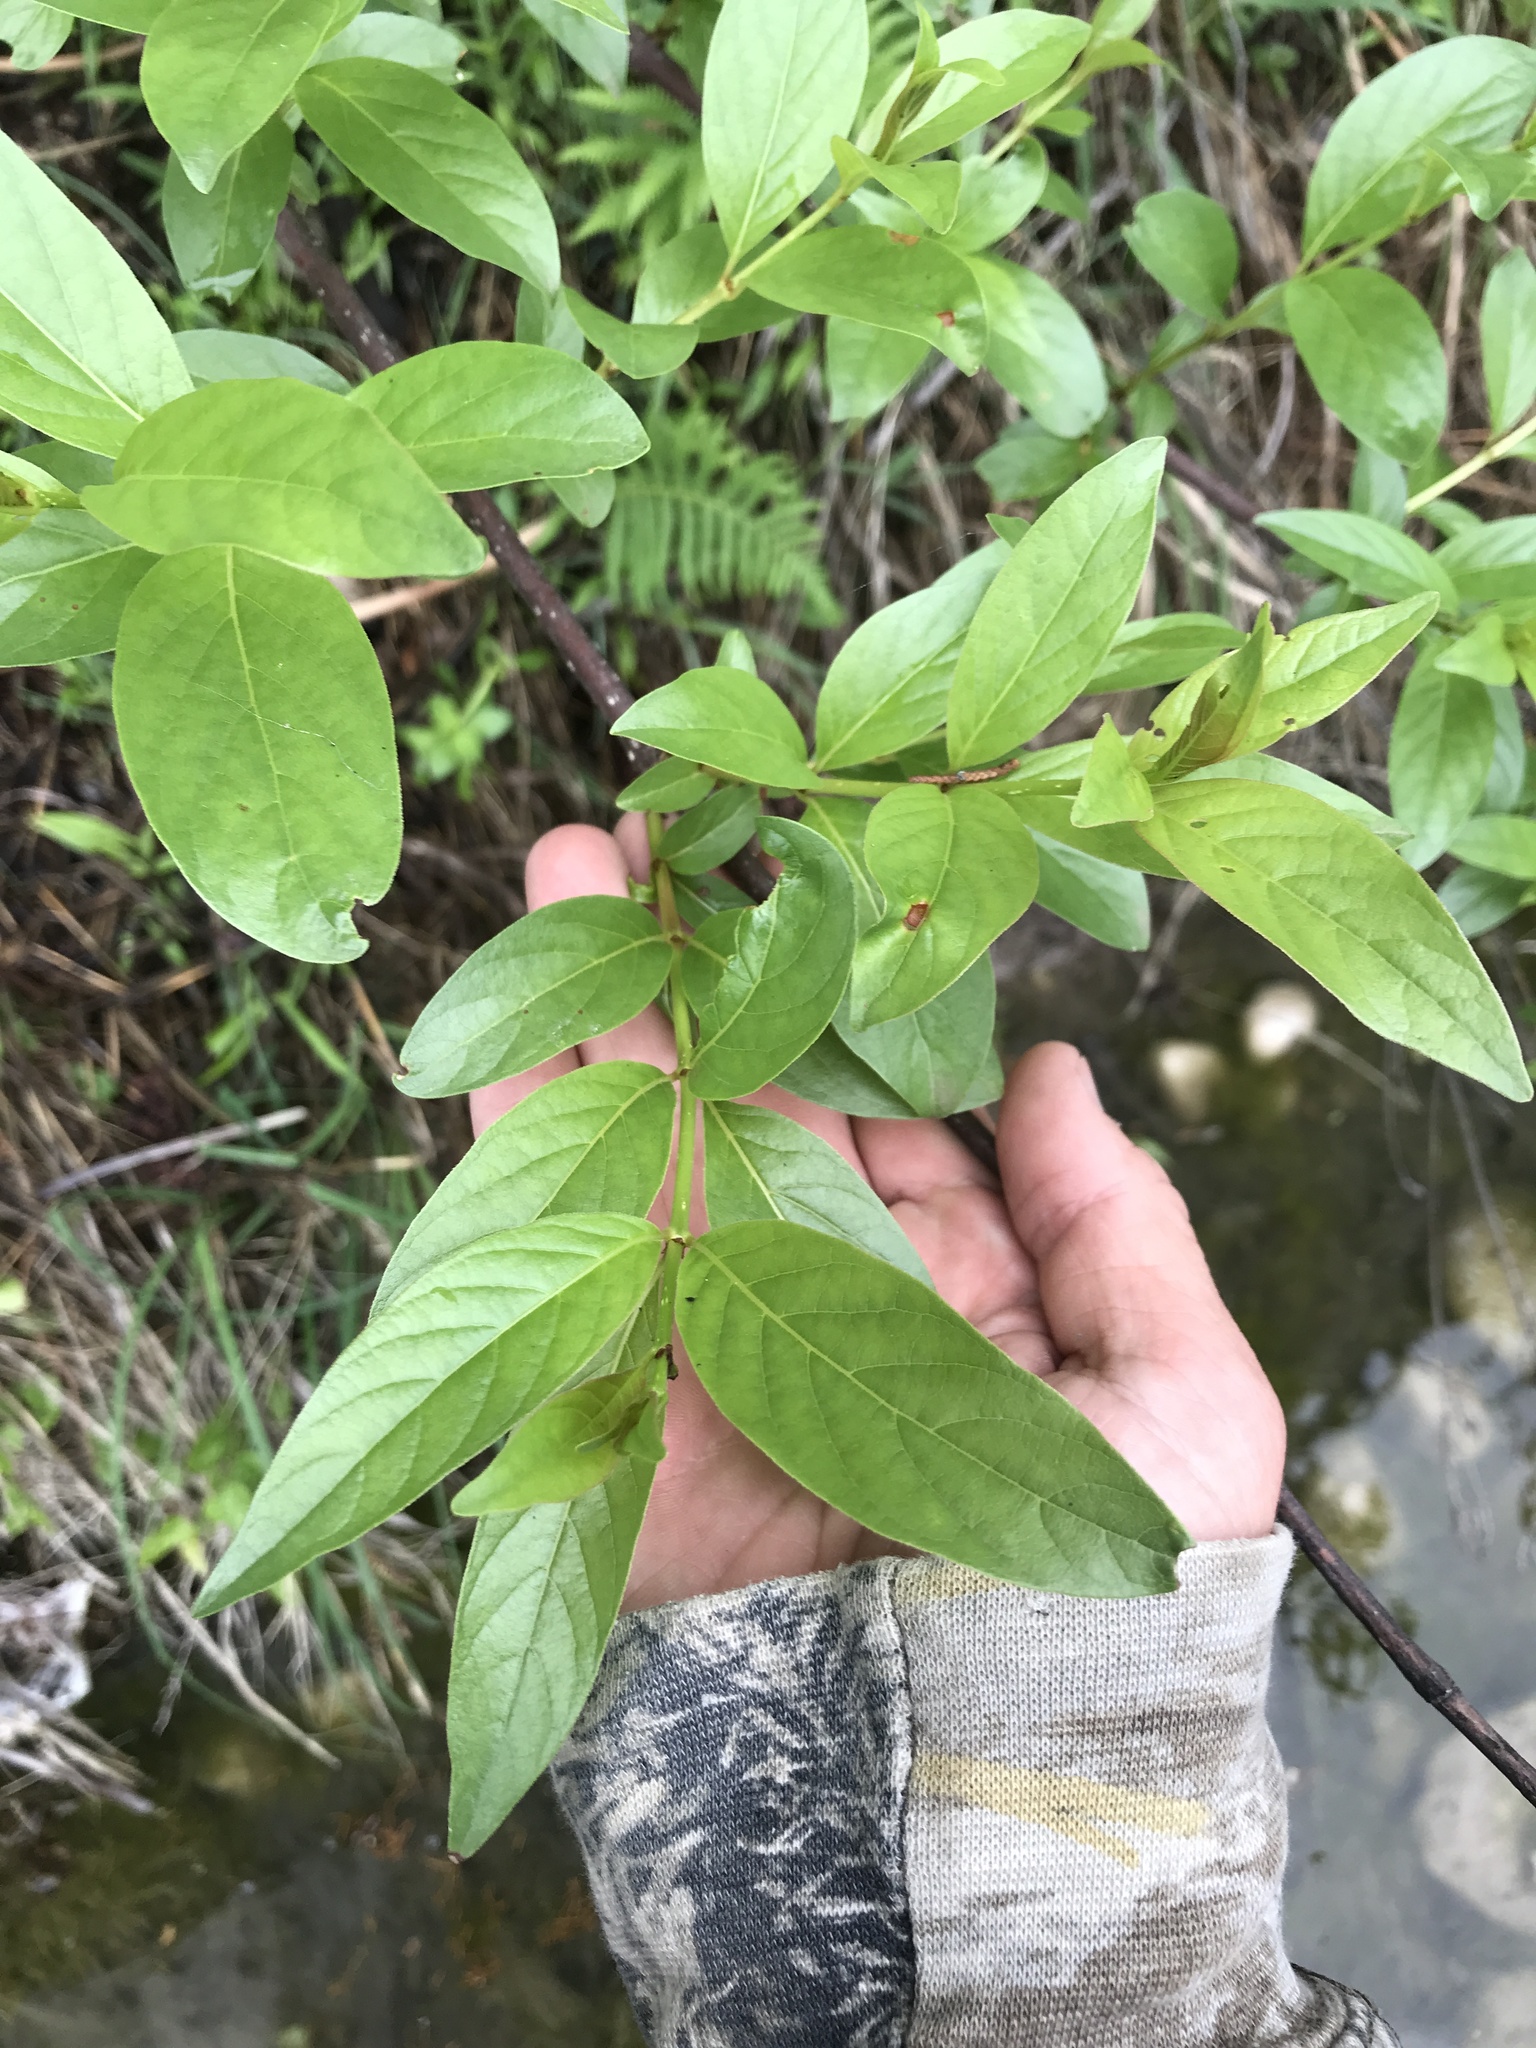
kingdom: Plantae
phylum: Tracheophyta
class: Magnoliopsida
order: Gentianales
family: Rubiaceae
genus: Cephalanthus
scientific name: Cephalanthus occidentalis
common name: Button-willow
